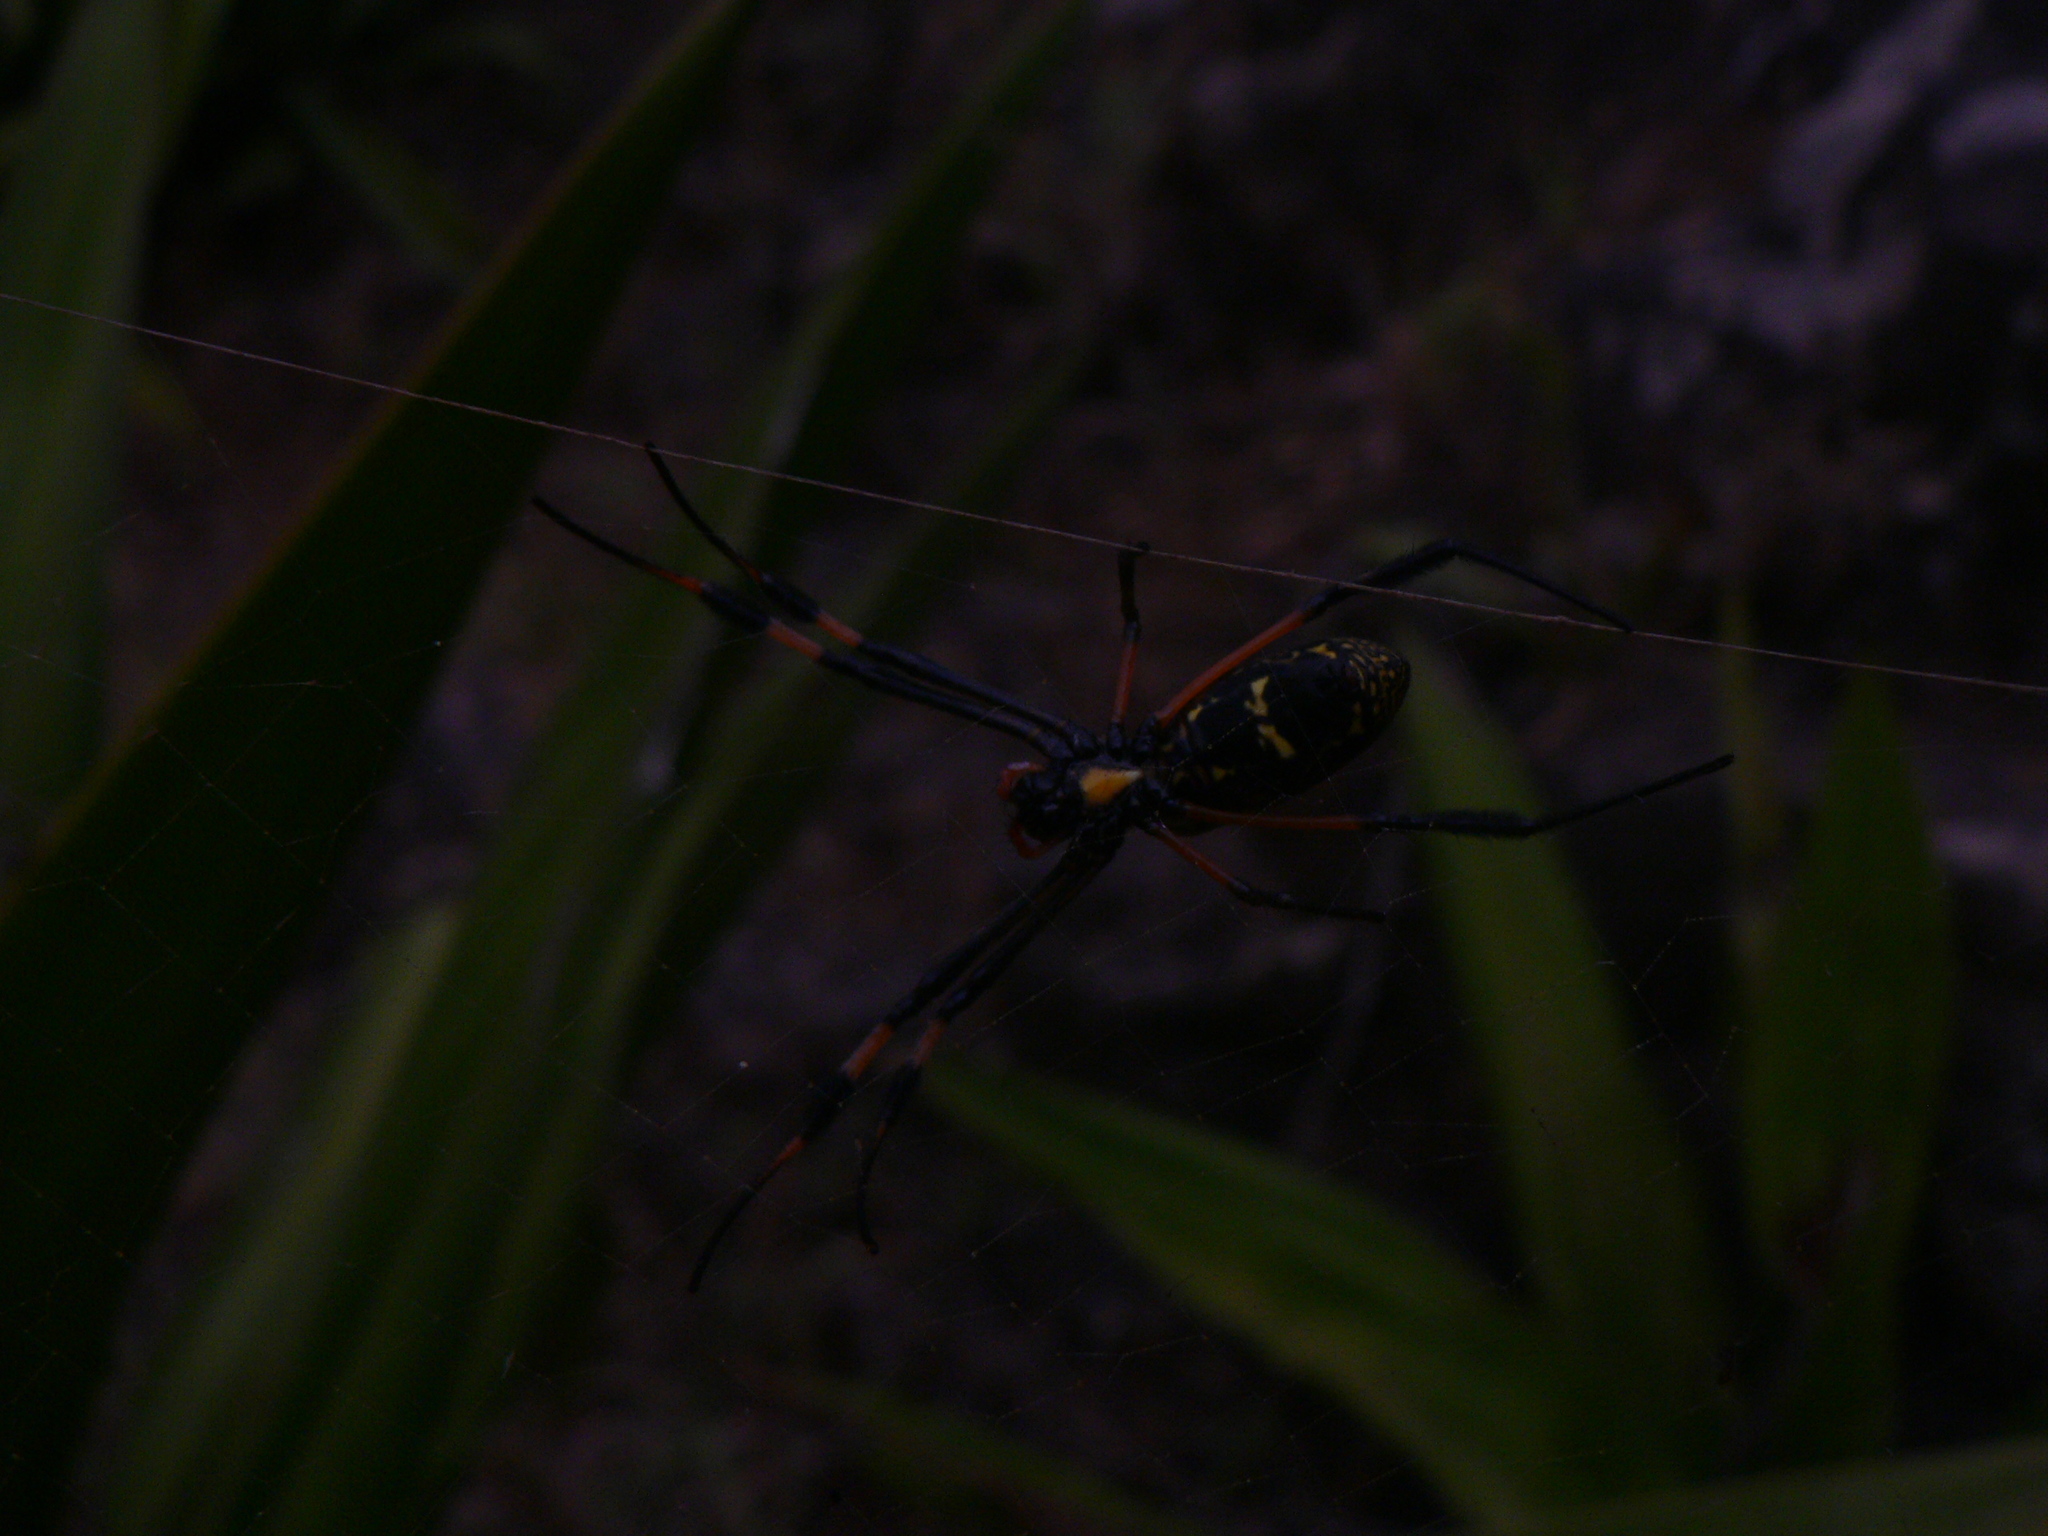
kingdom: Animalia
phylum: Arthropoda
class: Arachnida
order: Araneae
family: Araneidae
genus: Trichonephila
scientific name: Trichonephila senegalensis
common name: Banded golden orb weaver
